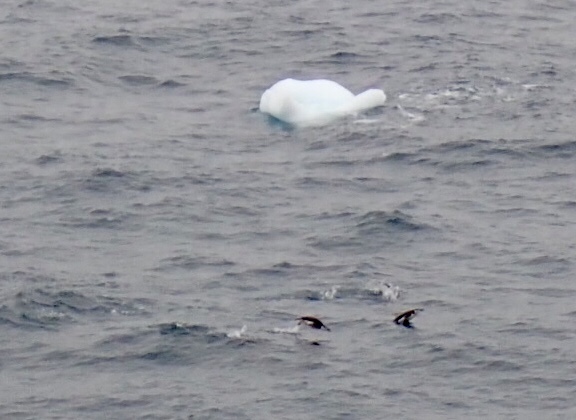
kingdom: Animalia
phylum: Chordata
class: Aves
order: Sphenisciformes
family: Spheniscidae
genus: Pygoscelis
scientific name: Pygoscelis antarcticus
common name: Chinstrap penguin
